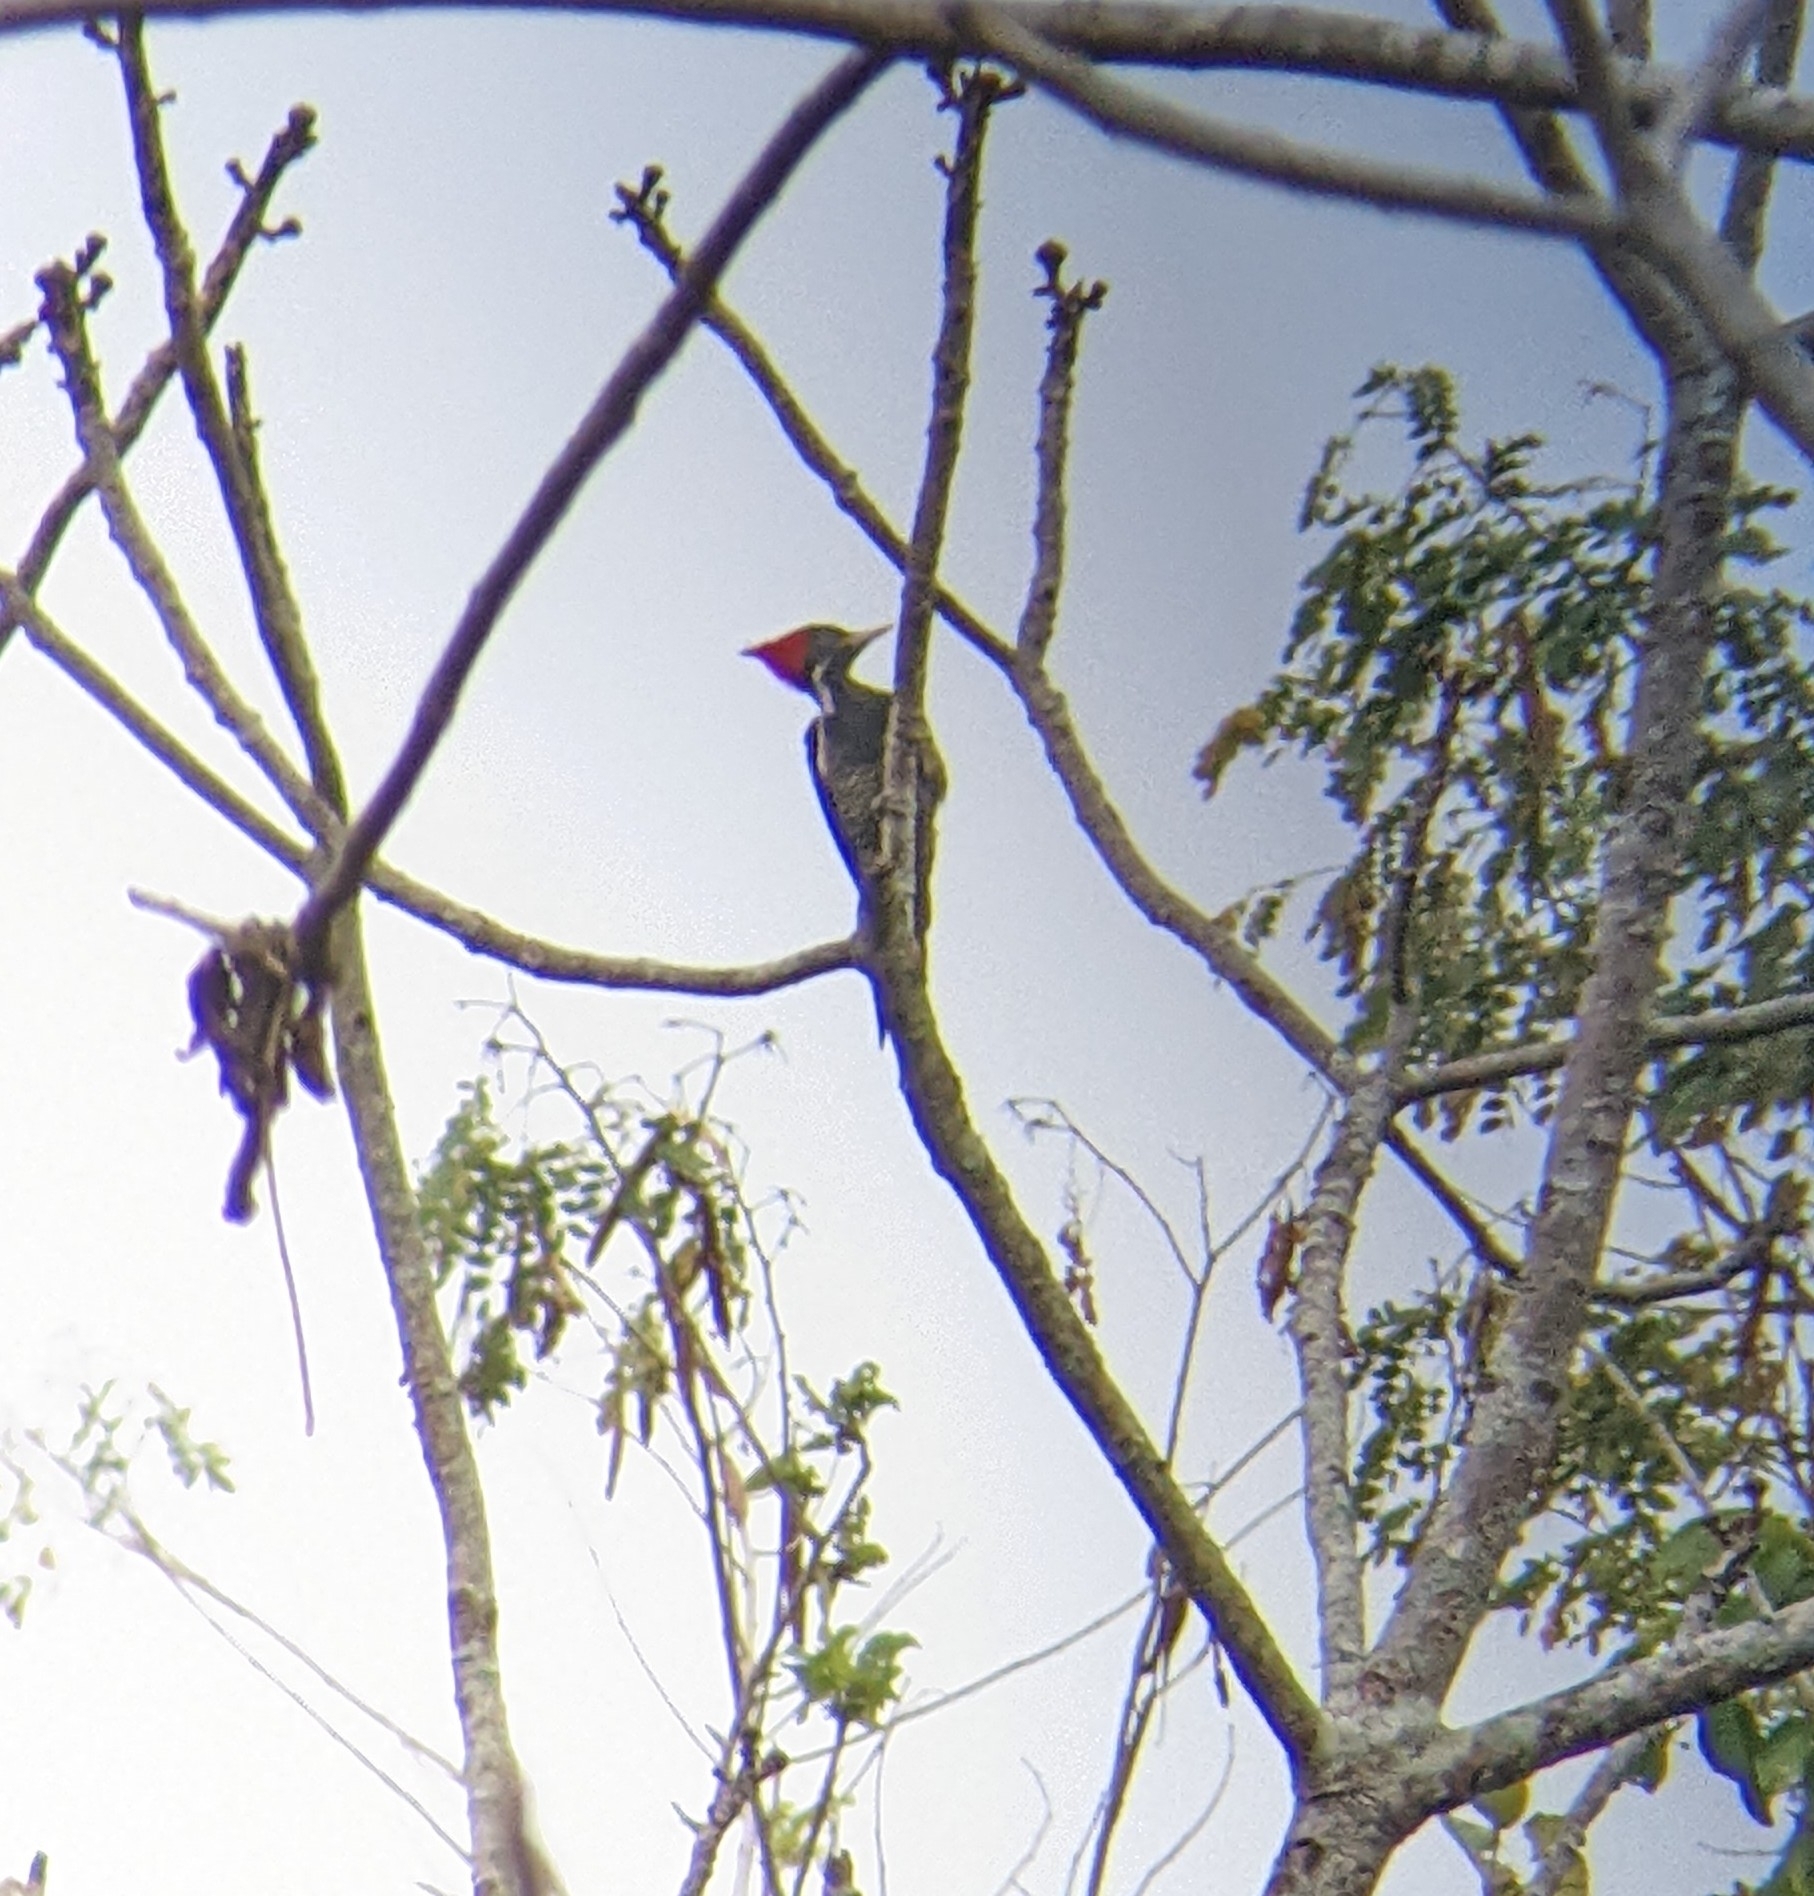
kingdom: Animalia
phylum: Chordata
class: Aves
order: Piciformes
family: Picidae
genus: Dryocopus
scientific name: Dryocopus lineatus
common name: Lineated woodpecker
